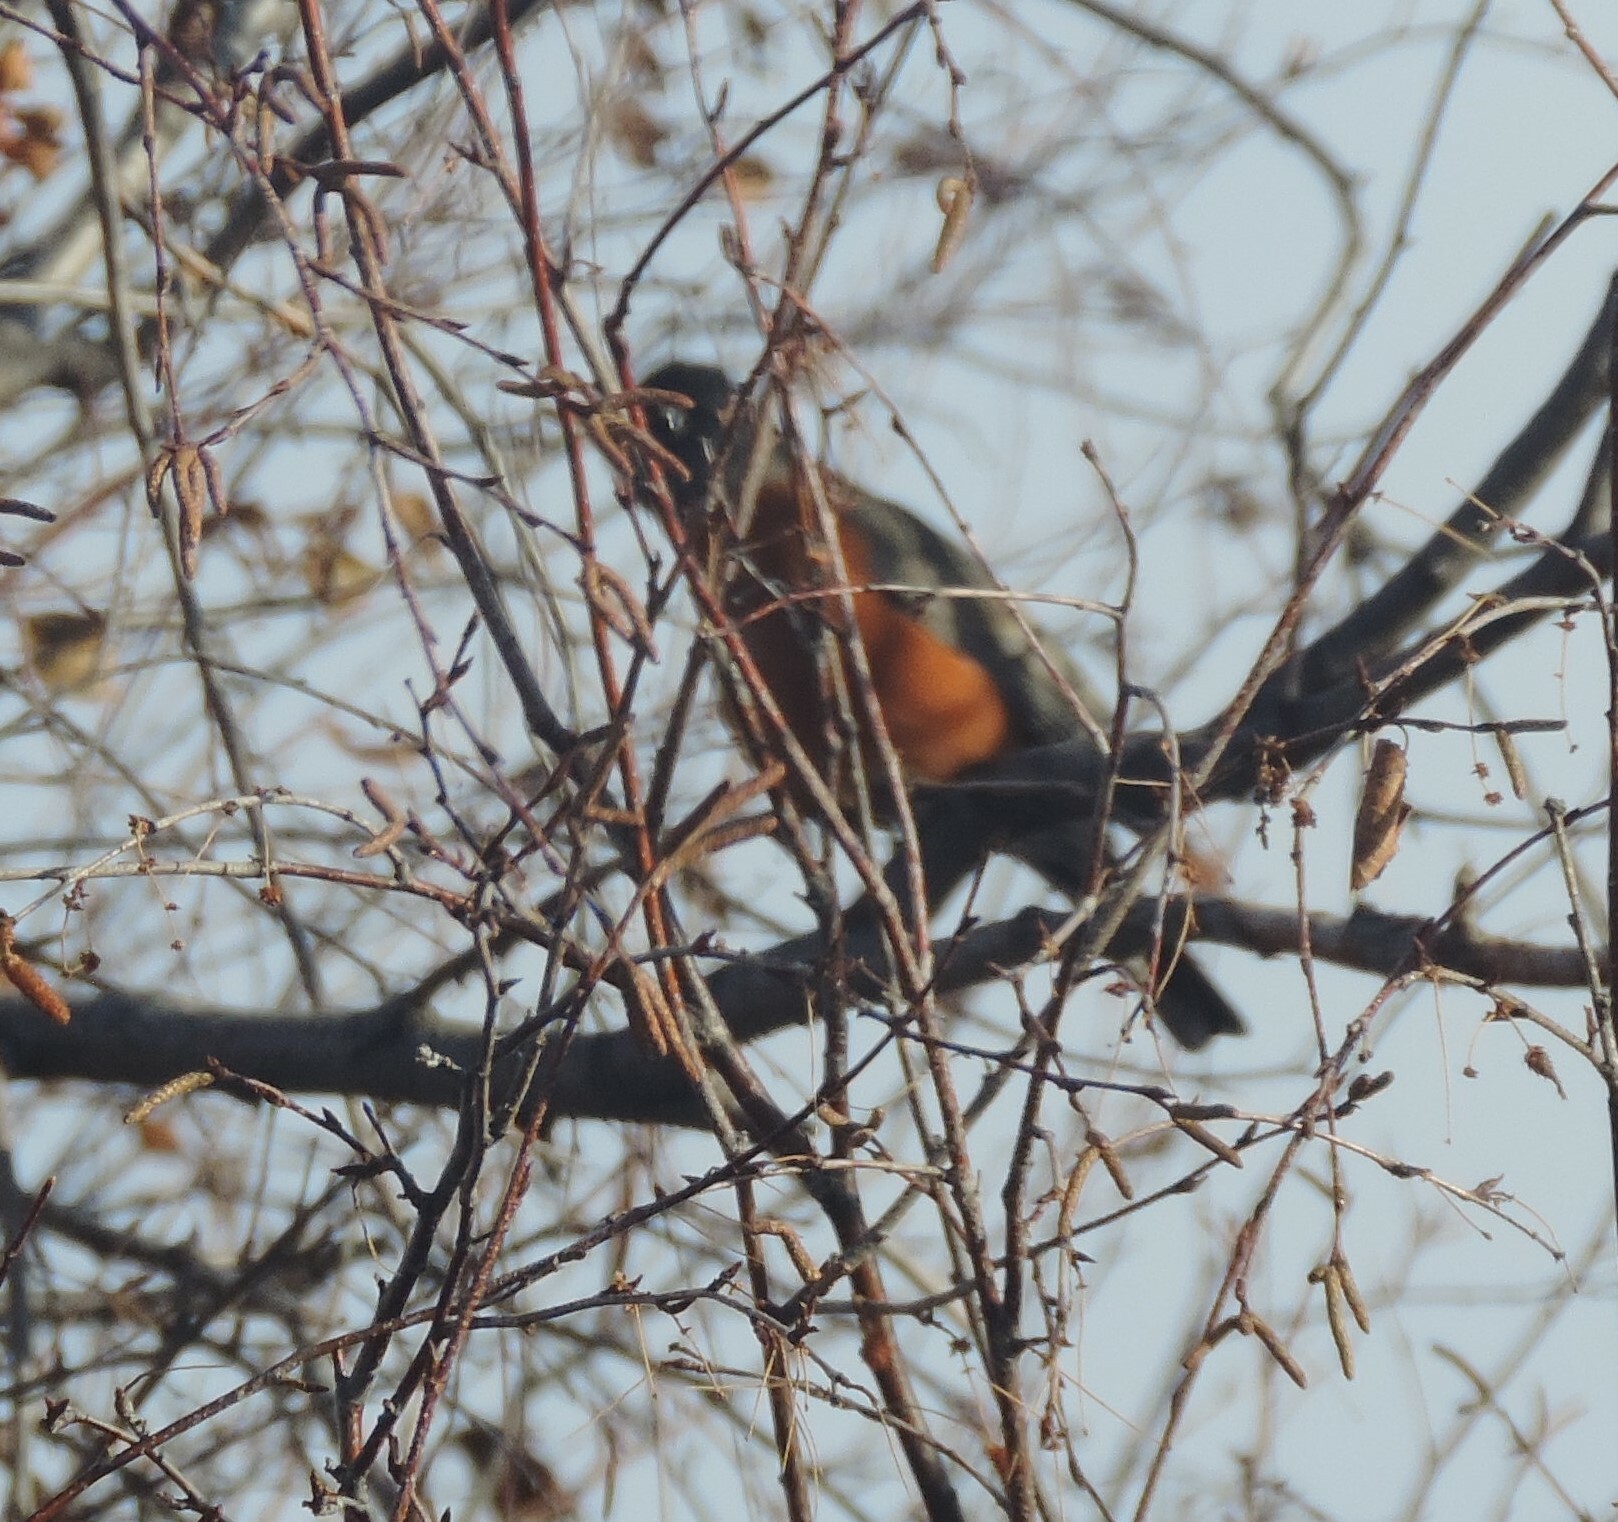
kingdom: Animalia
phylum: Chordata
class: Aves
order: Passeriformes
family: Turdidae
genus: Turdus
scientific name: Turdus migratorius
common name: American robin
